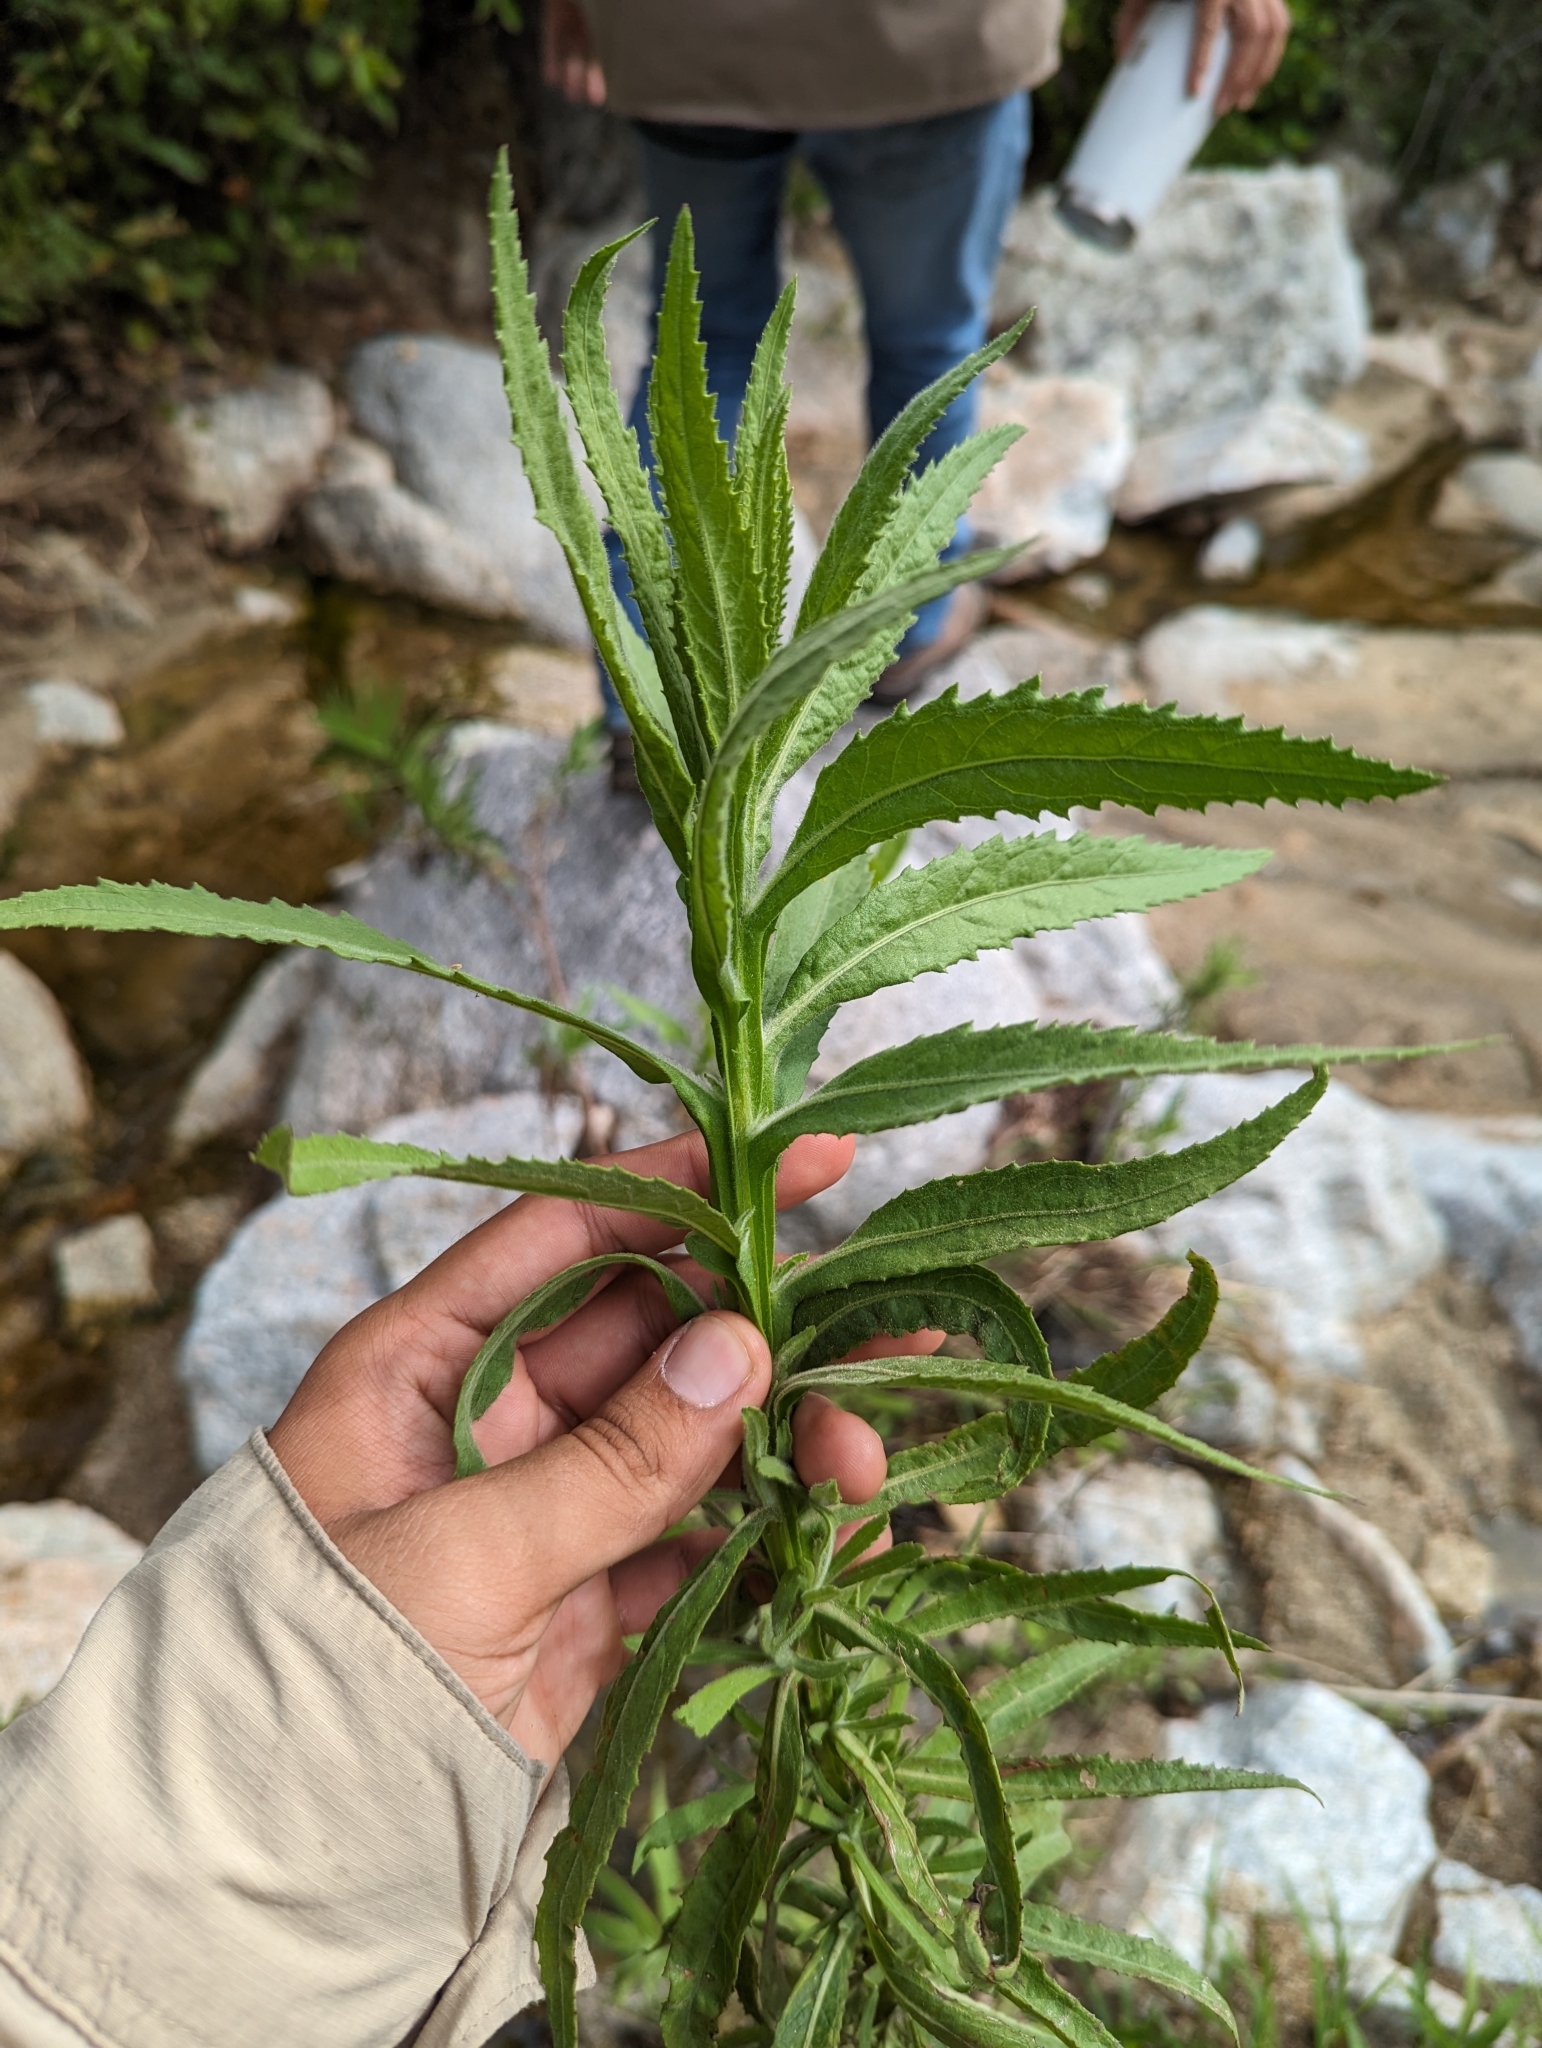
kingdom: Plantae
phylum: Tracheophyta
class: Magnoliopsida
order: Asterales
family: Asteraceae
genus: Pluchea
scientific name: Pluchea salicifolia
